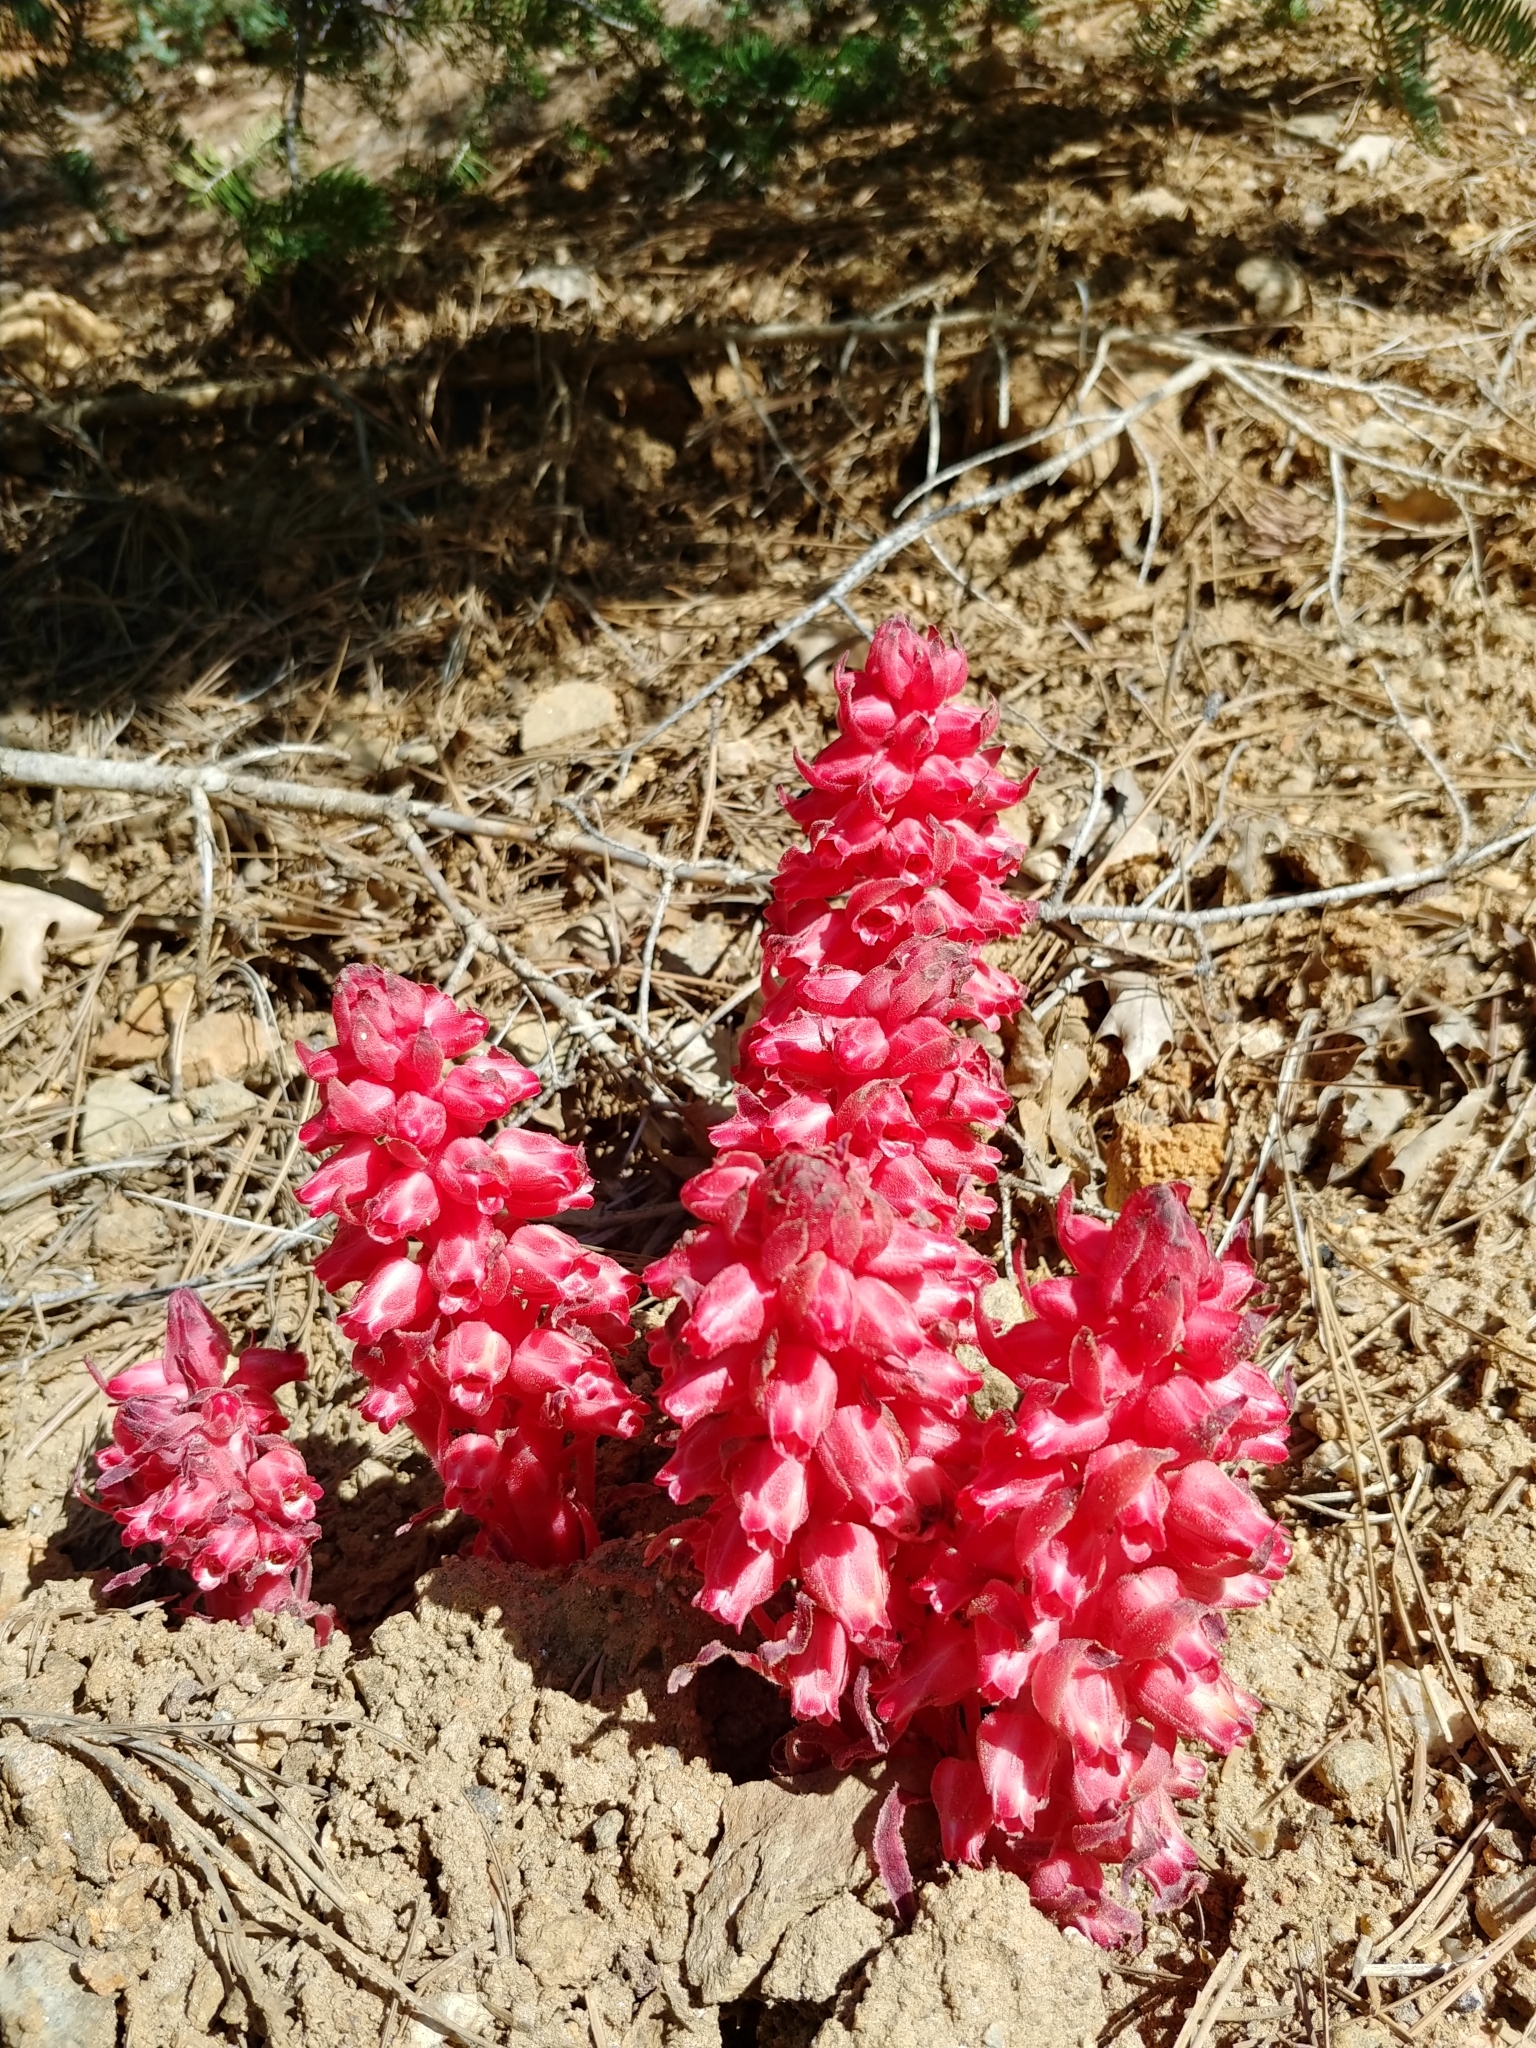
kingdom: Plantae
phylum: Tracheophyta
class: Magnoliopsida
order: Ericales
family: Ericaceae
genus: Sarcodes
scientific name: Sarcodes sanguinea
